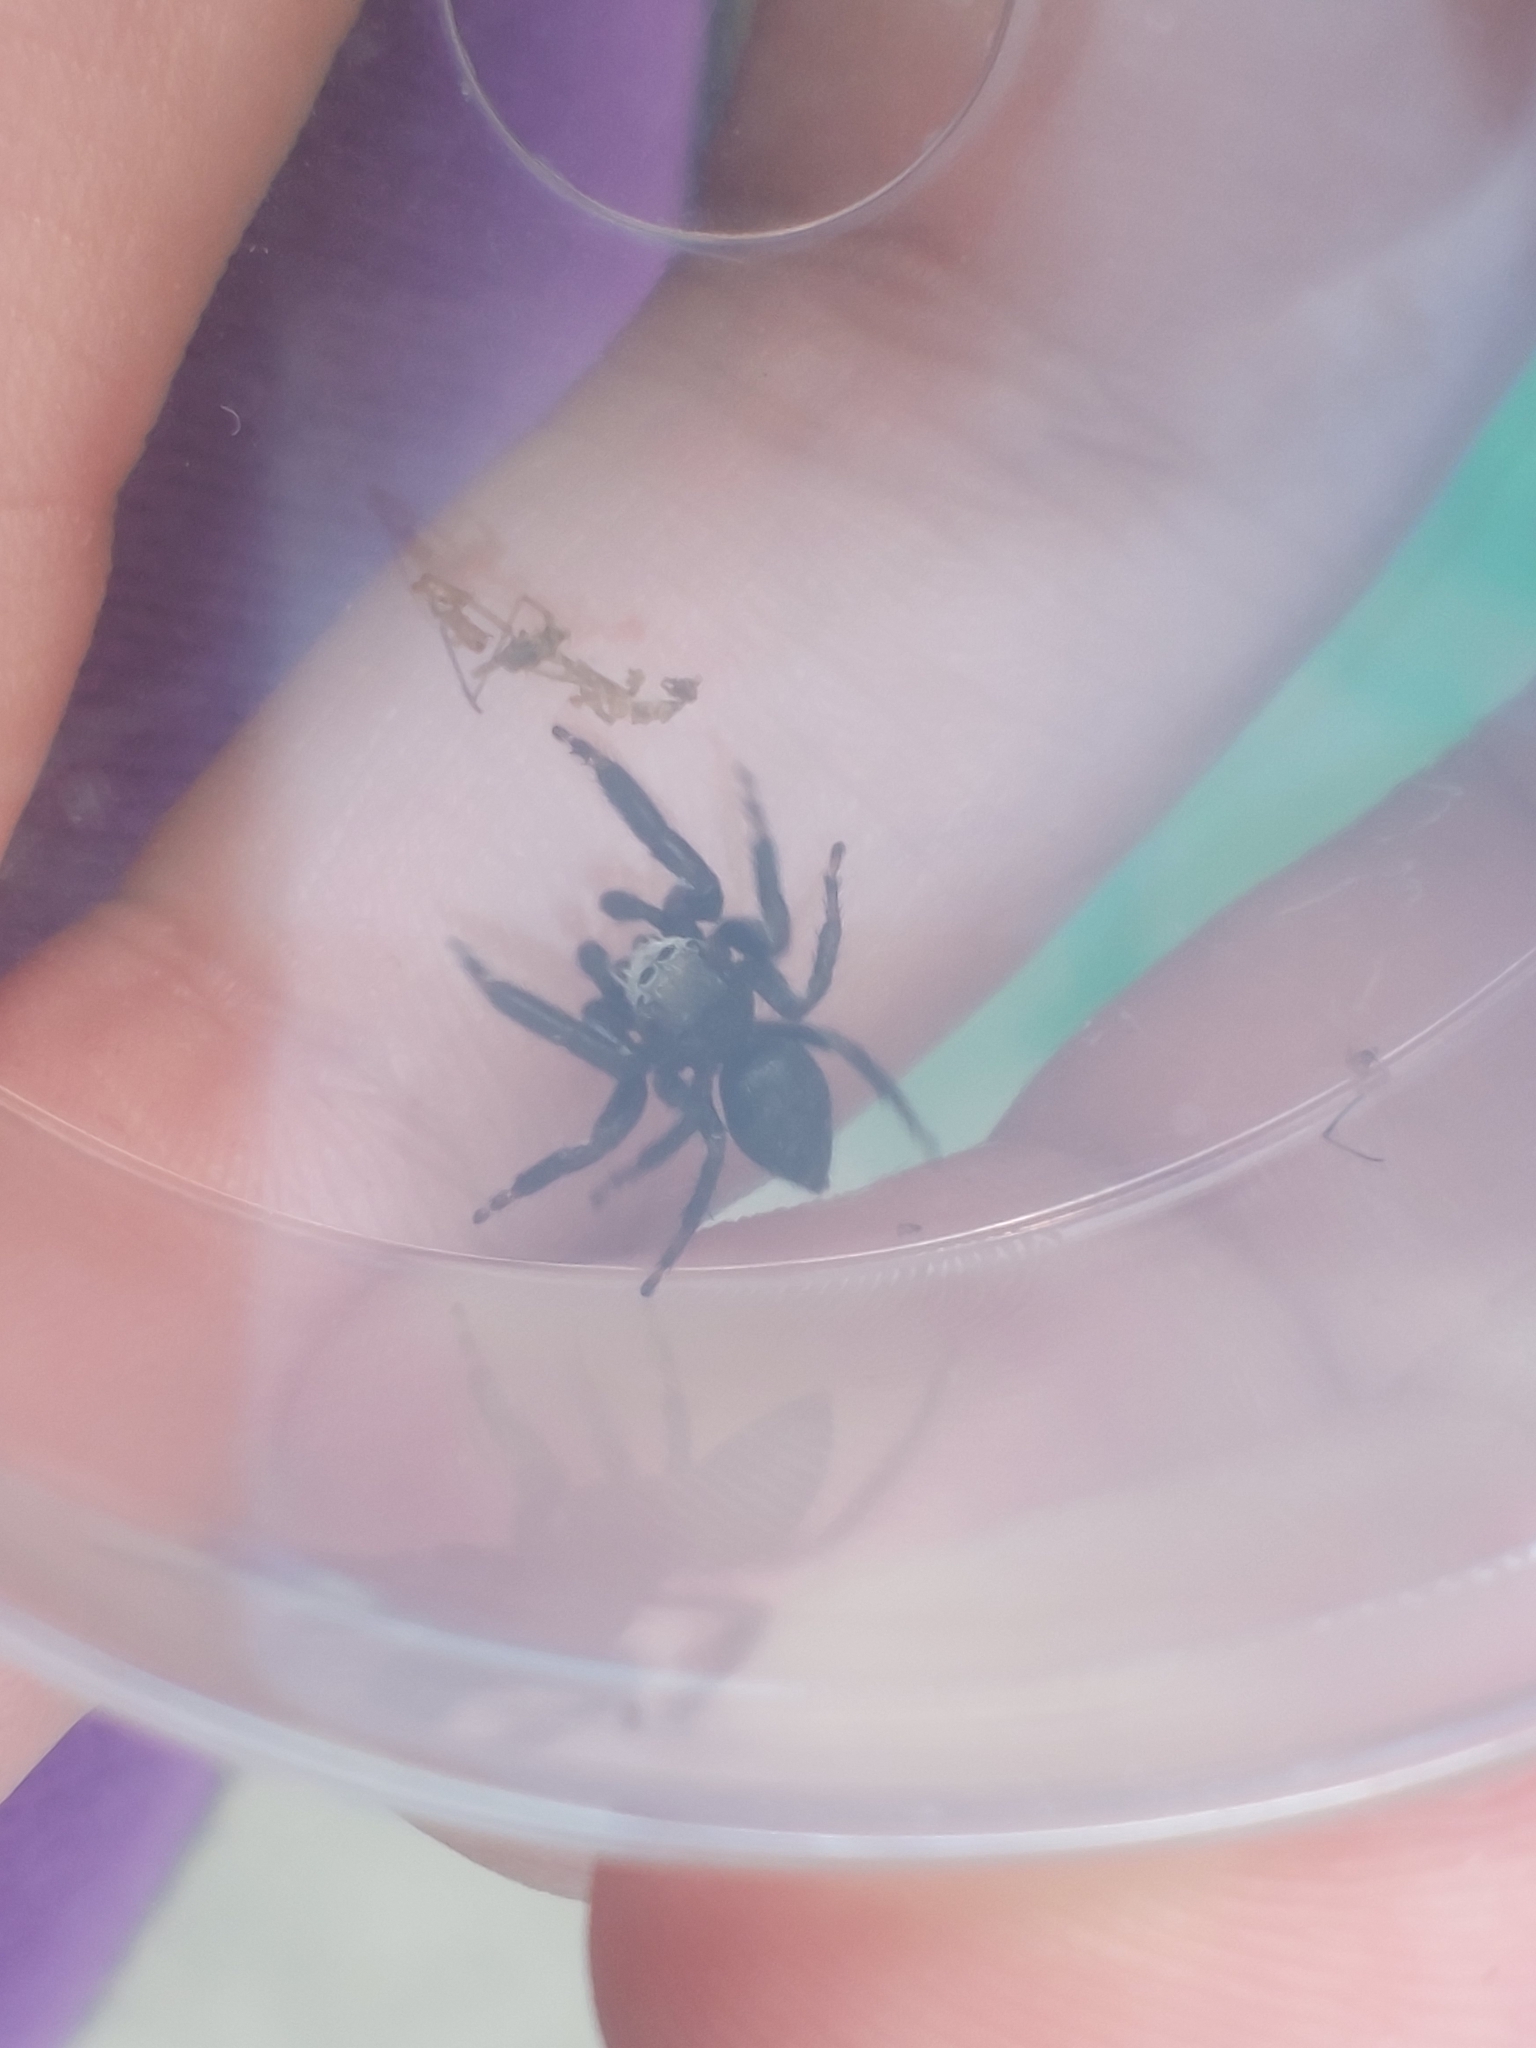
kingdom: Animalia
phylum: Arthropoda
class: Arachnida
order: Araneae
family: Salticidae
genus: Evarcha
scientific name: Evarcha arcuata
